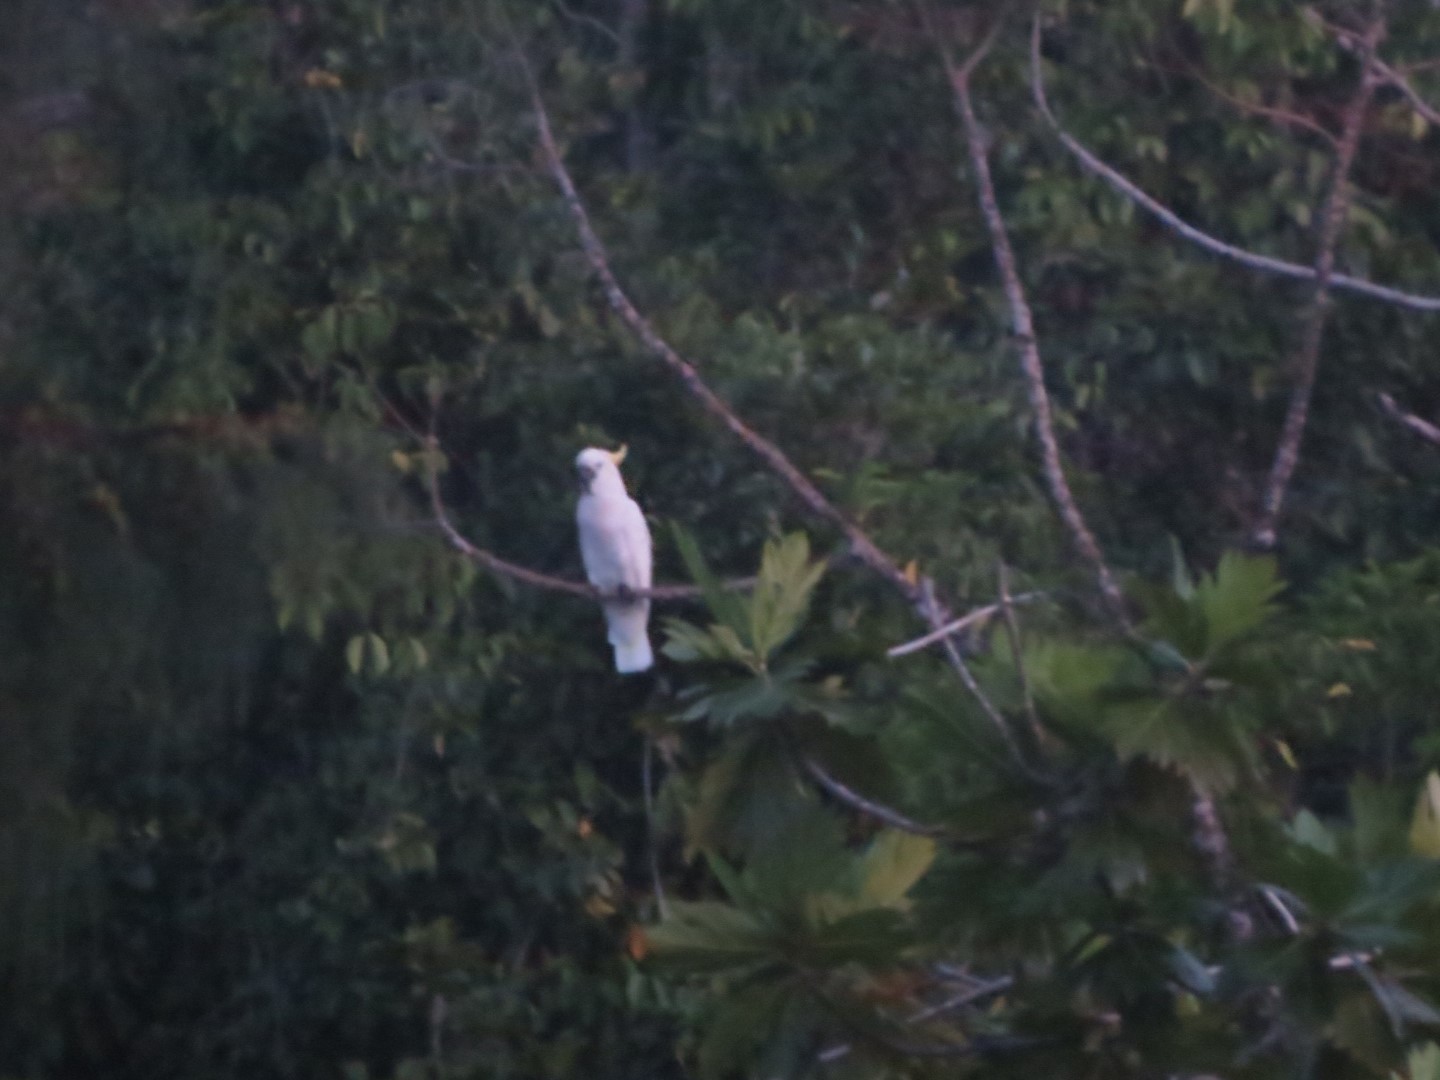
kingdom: Animalia
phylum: Chordata
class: Aves
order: Psittaciformes
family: Psittacidae
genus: Cacatua
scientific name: Cacatua galerita
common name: Sulphur-crested cockatoo
